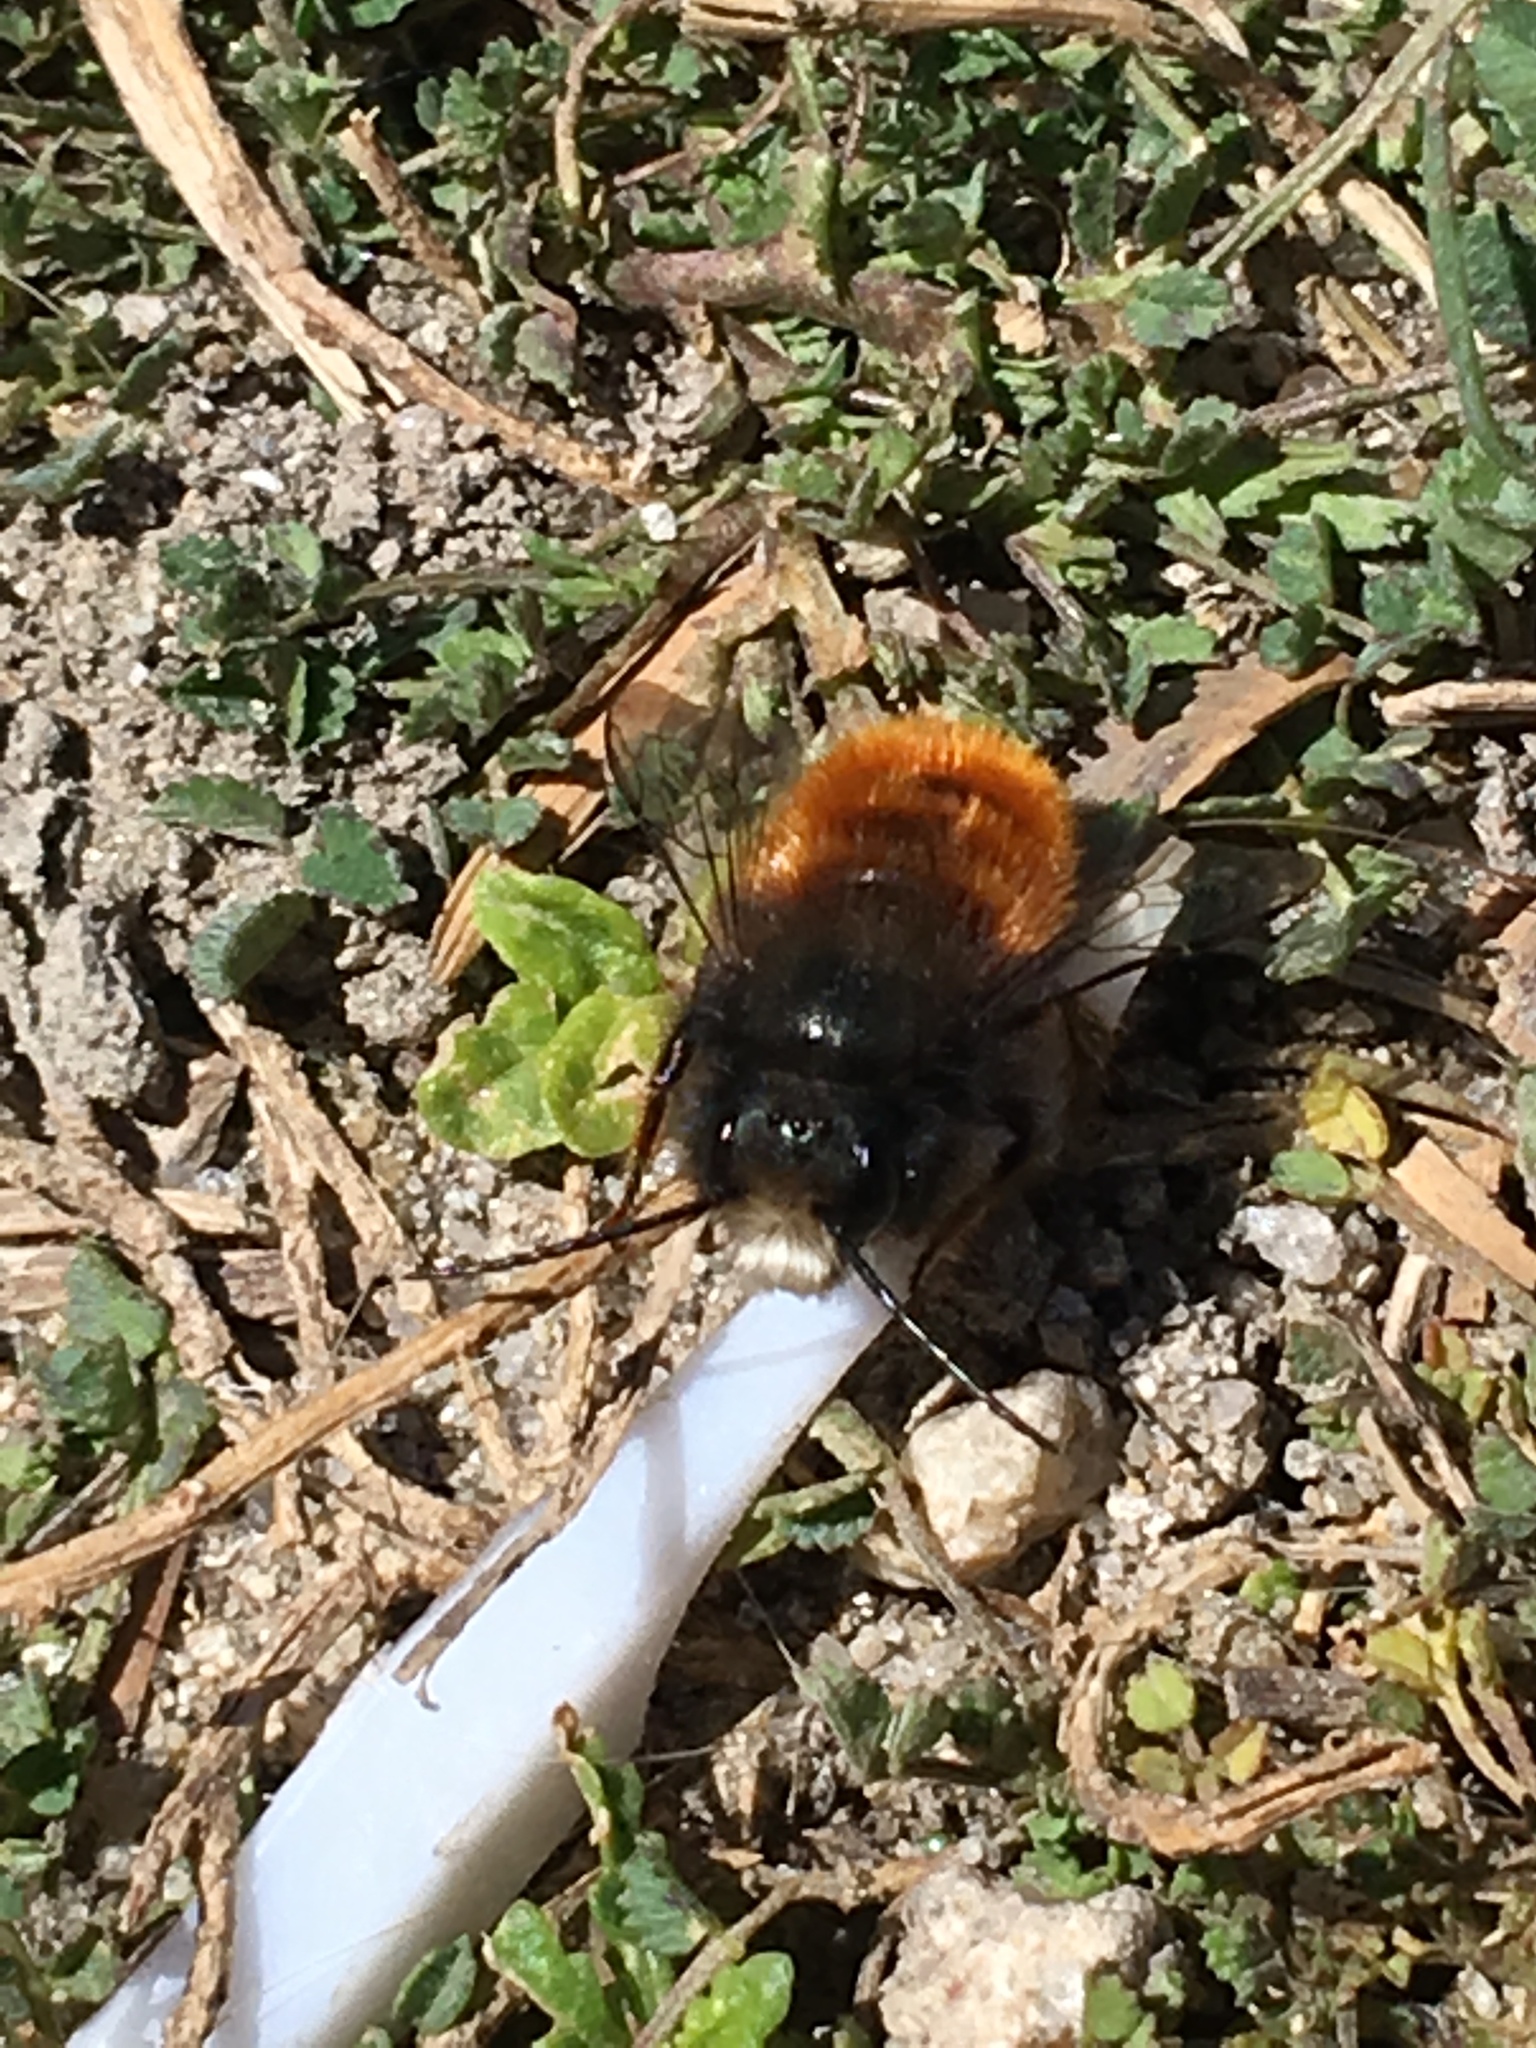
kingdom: Animalia
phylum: Arthropoda
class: Insecta
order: Hymenoptera
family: Megachilidae
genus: Osmia
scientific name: Osmia cornuta
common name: Mason bee
